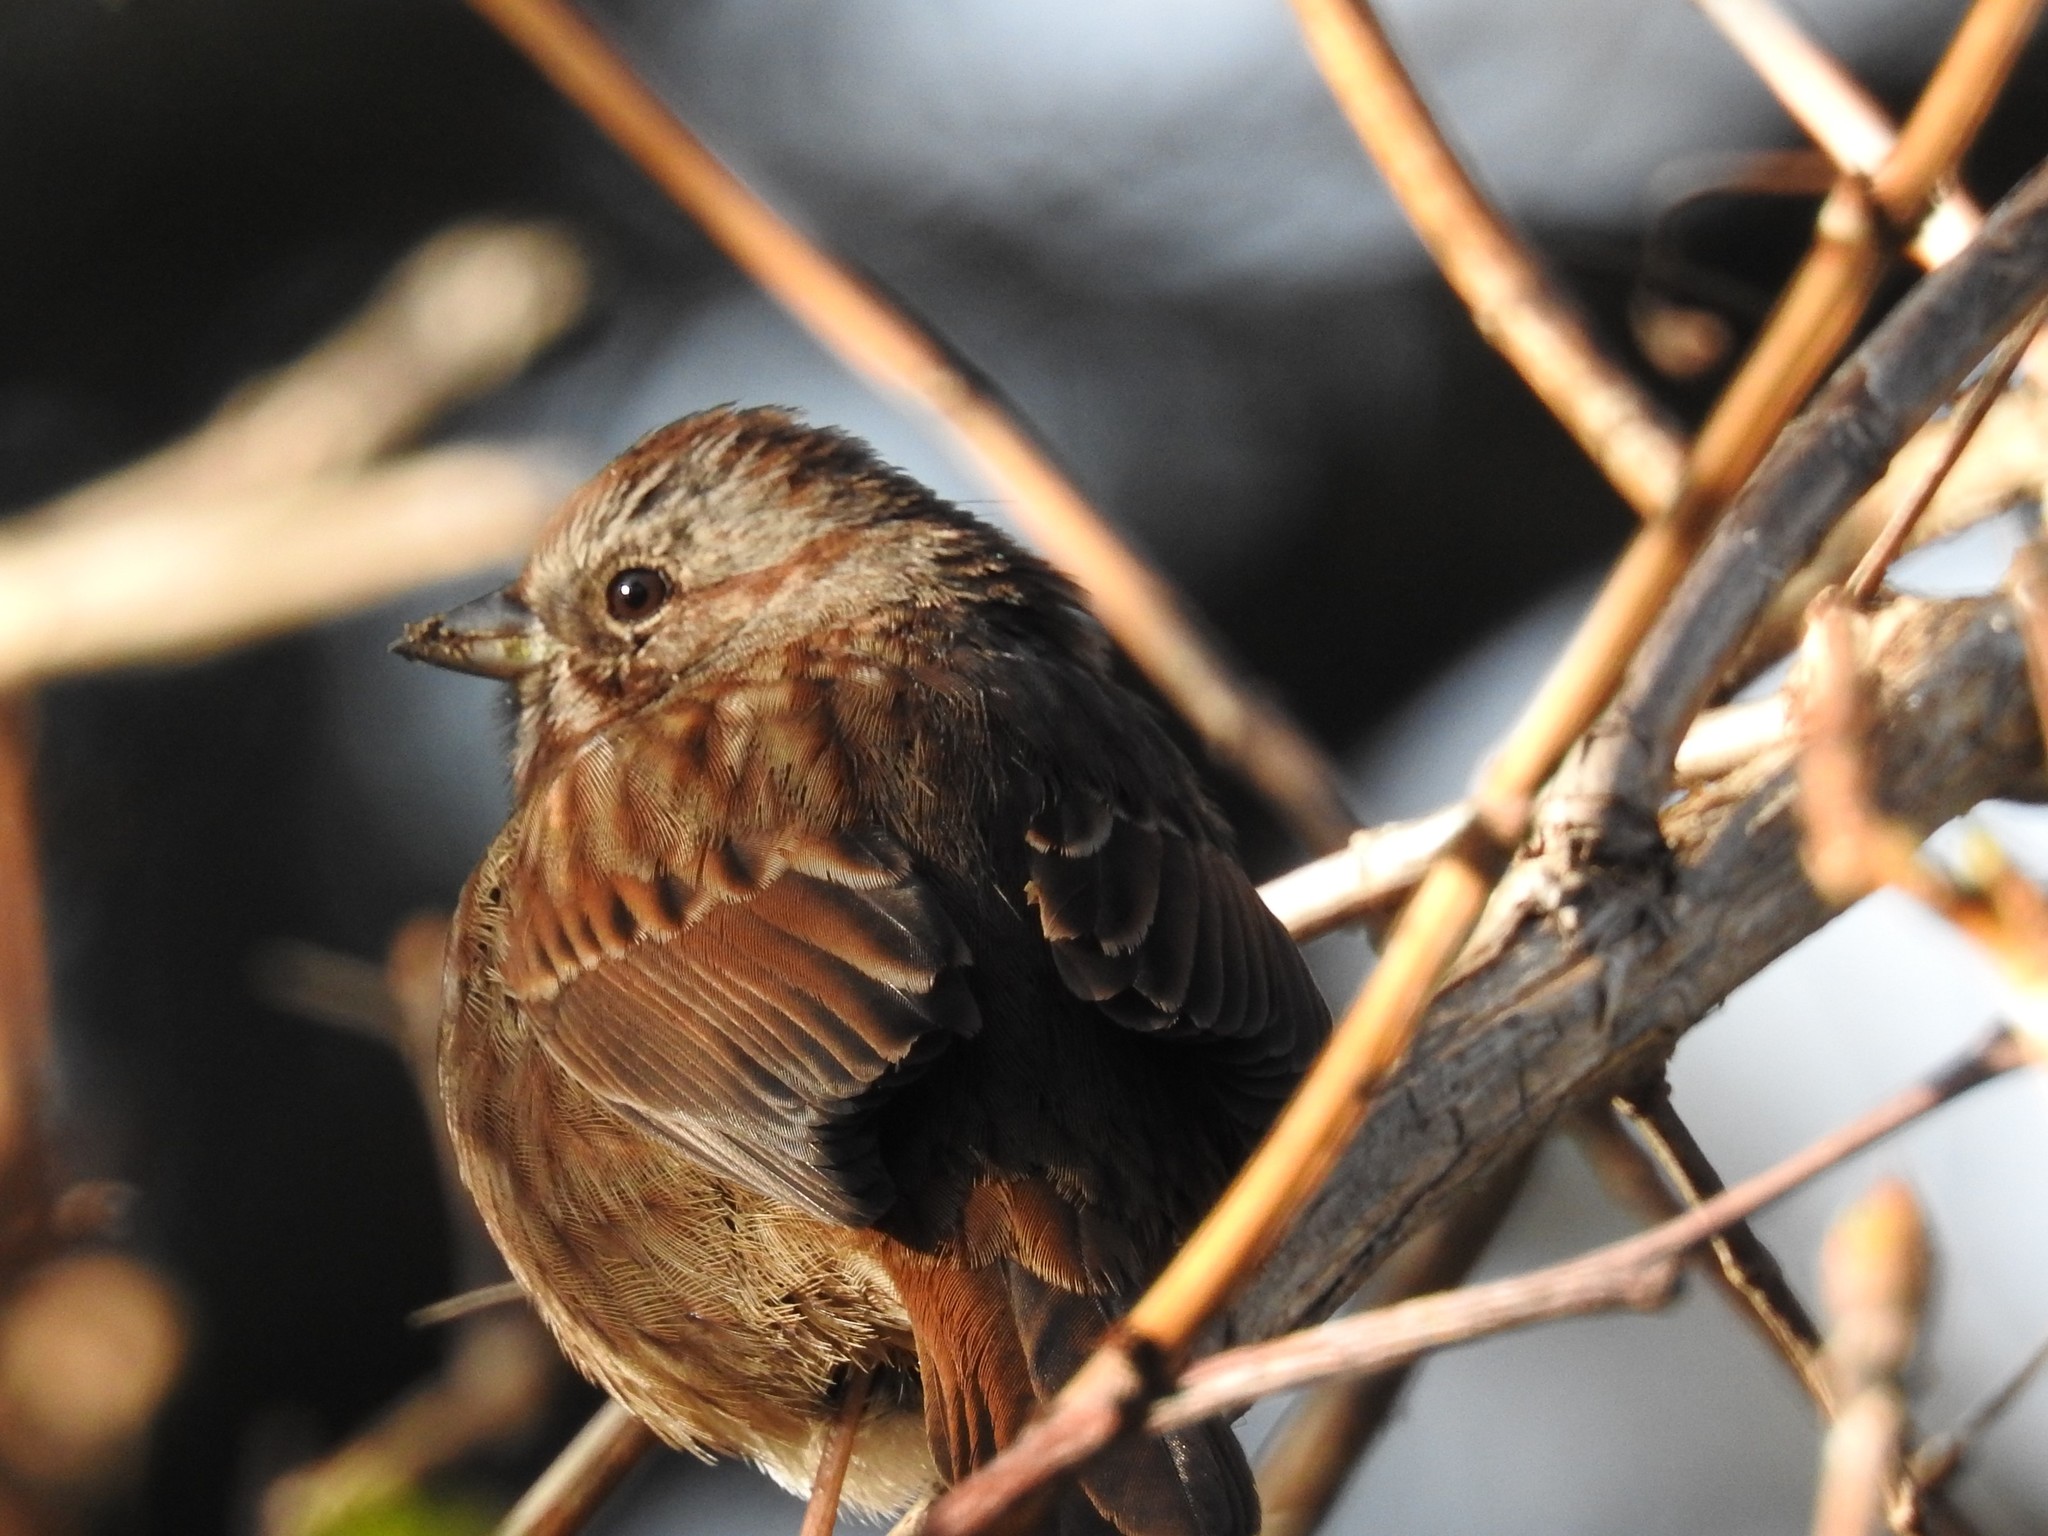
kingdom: Animalia
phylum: Chordata
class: Aves
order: Passeriformes
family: Passerellidae
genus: Melospiza
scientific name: Melospiza melodia
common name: Song sparrow
